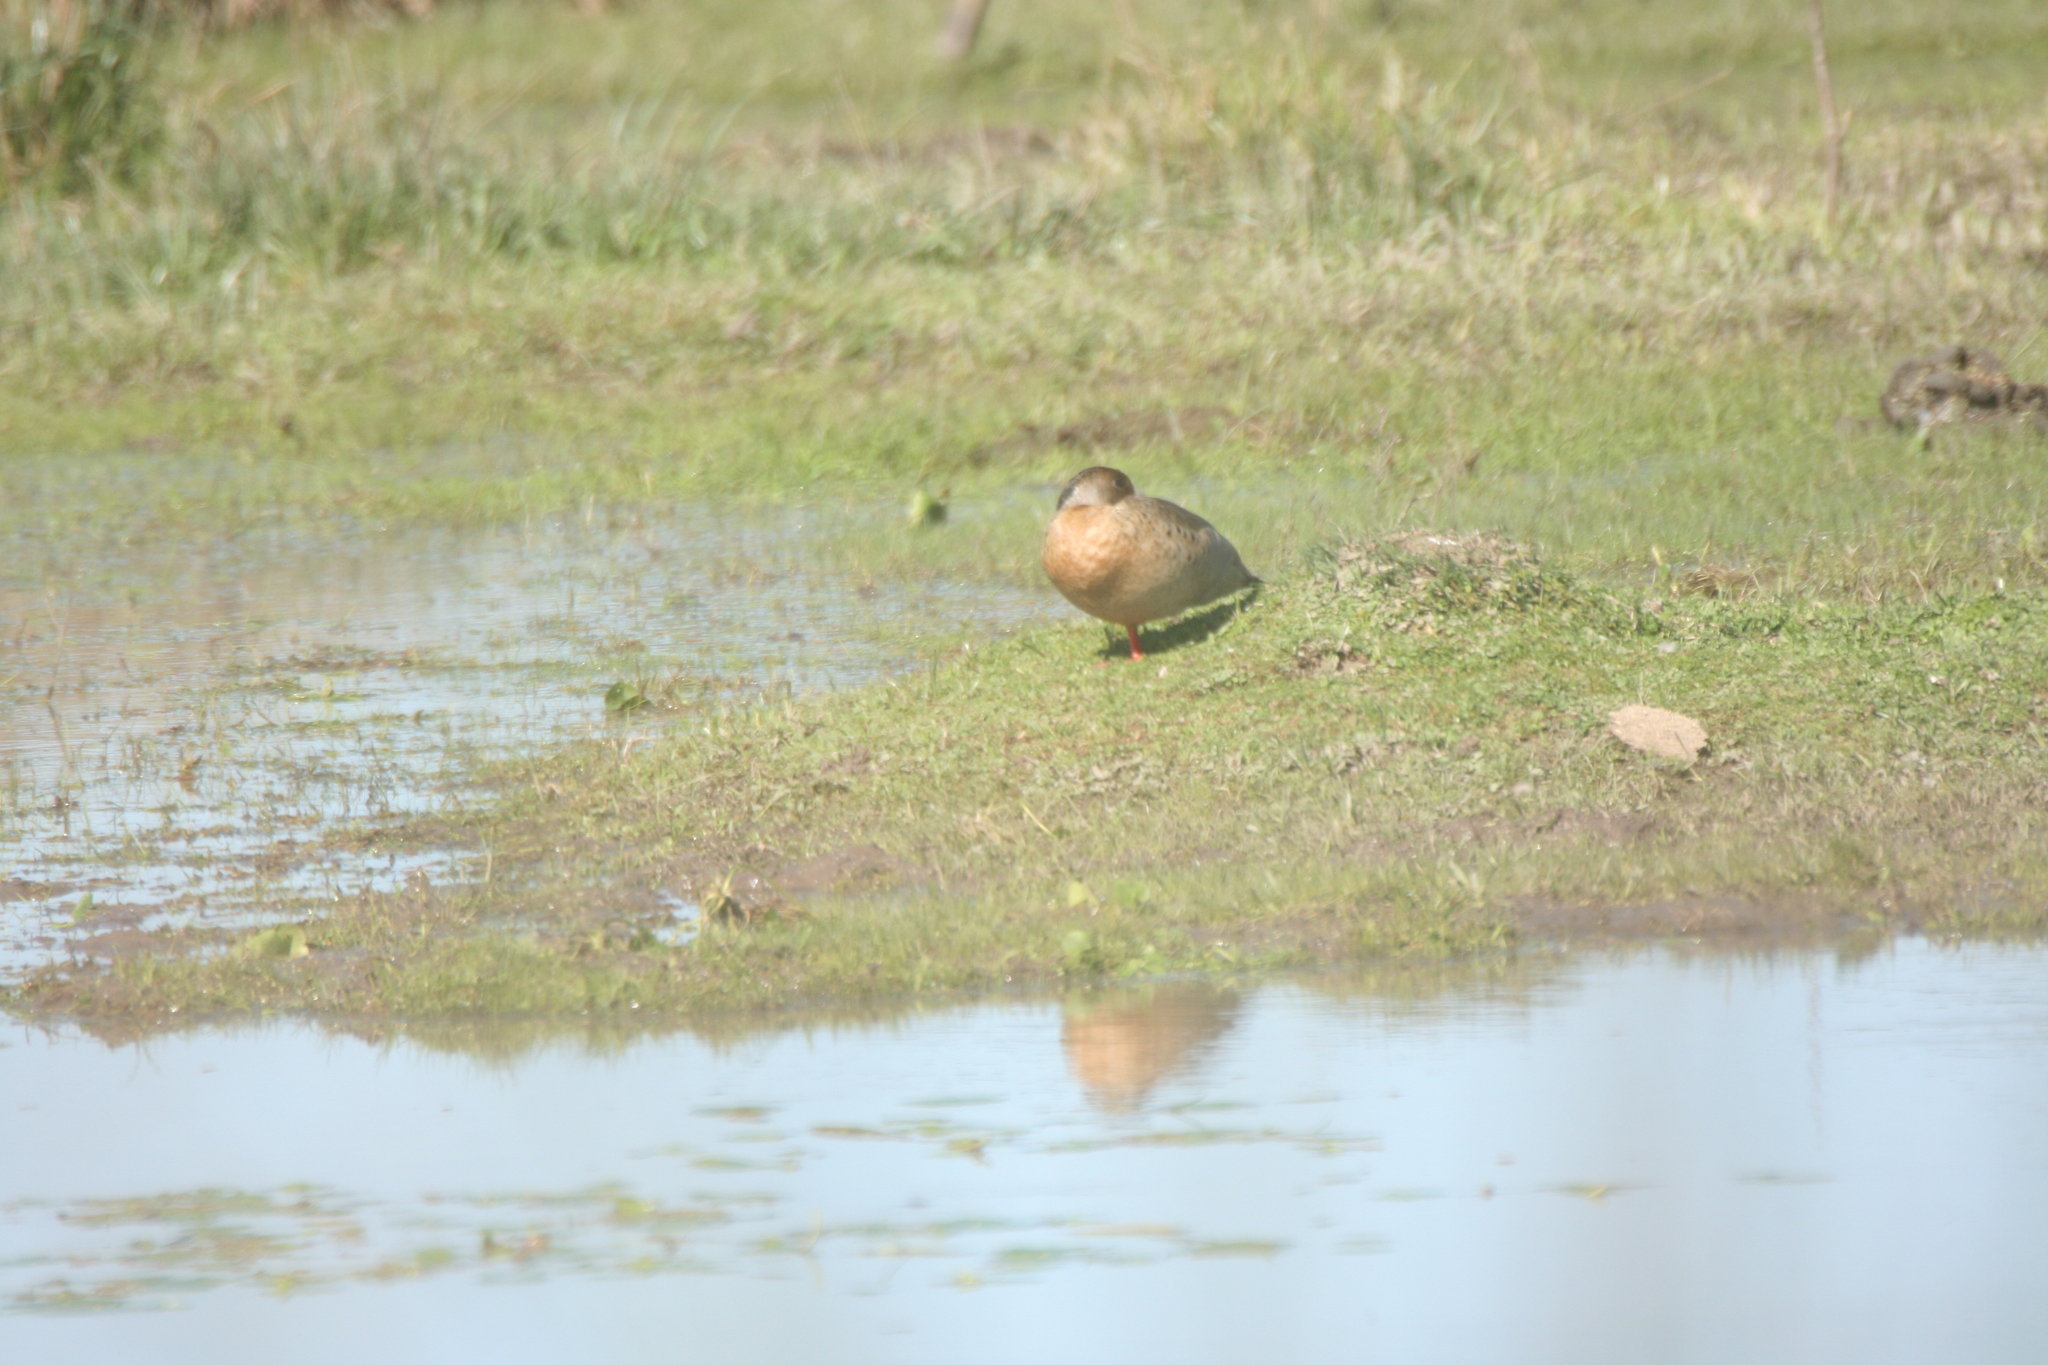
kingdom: Animalia
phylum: Chordata
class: Aves
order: Anseriformes
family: Anatidae
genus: Amazonetta
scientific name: Amazonetta brasiliensis
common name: Brazilian teal
